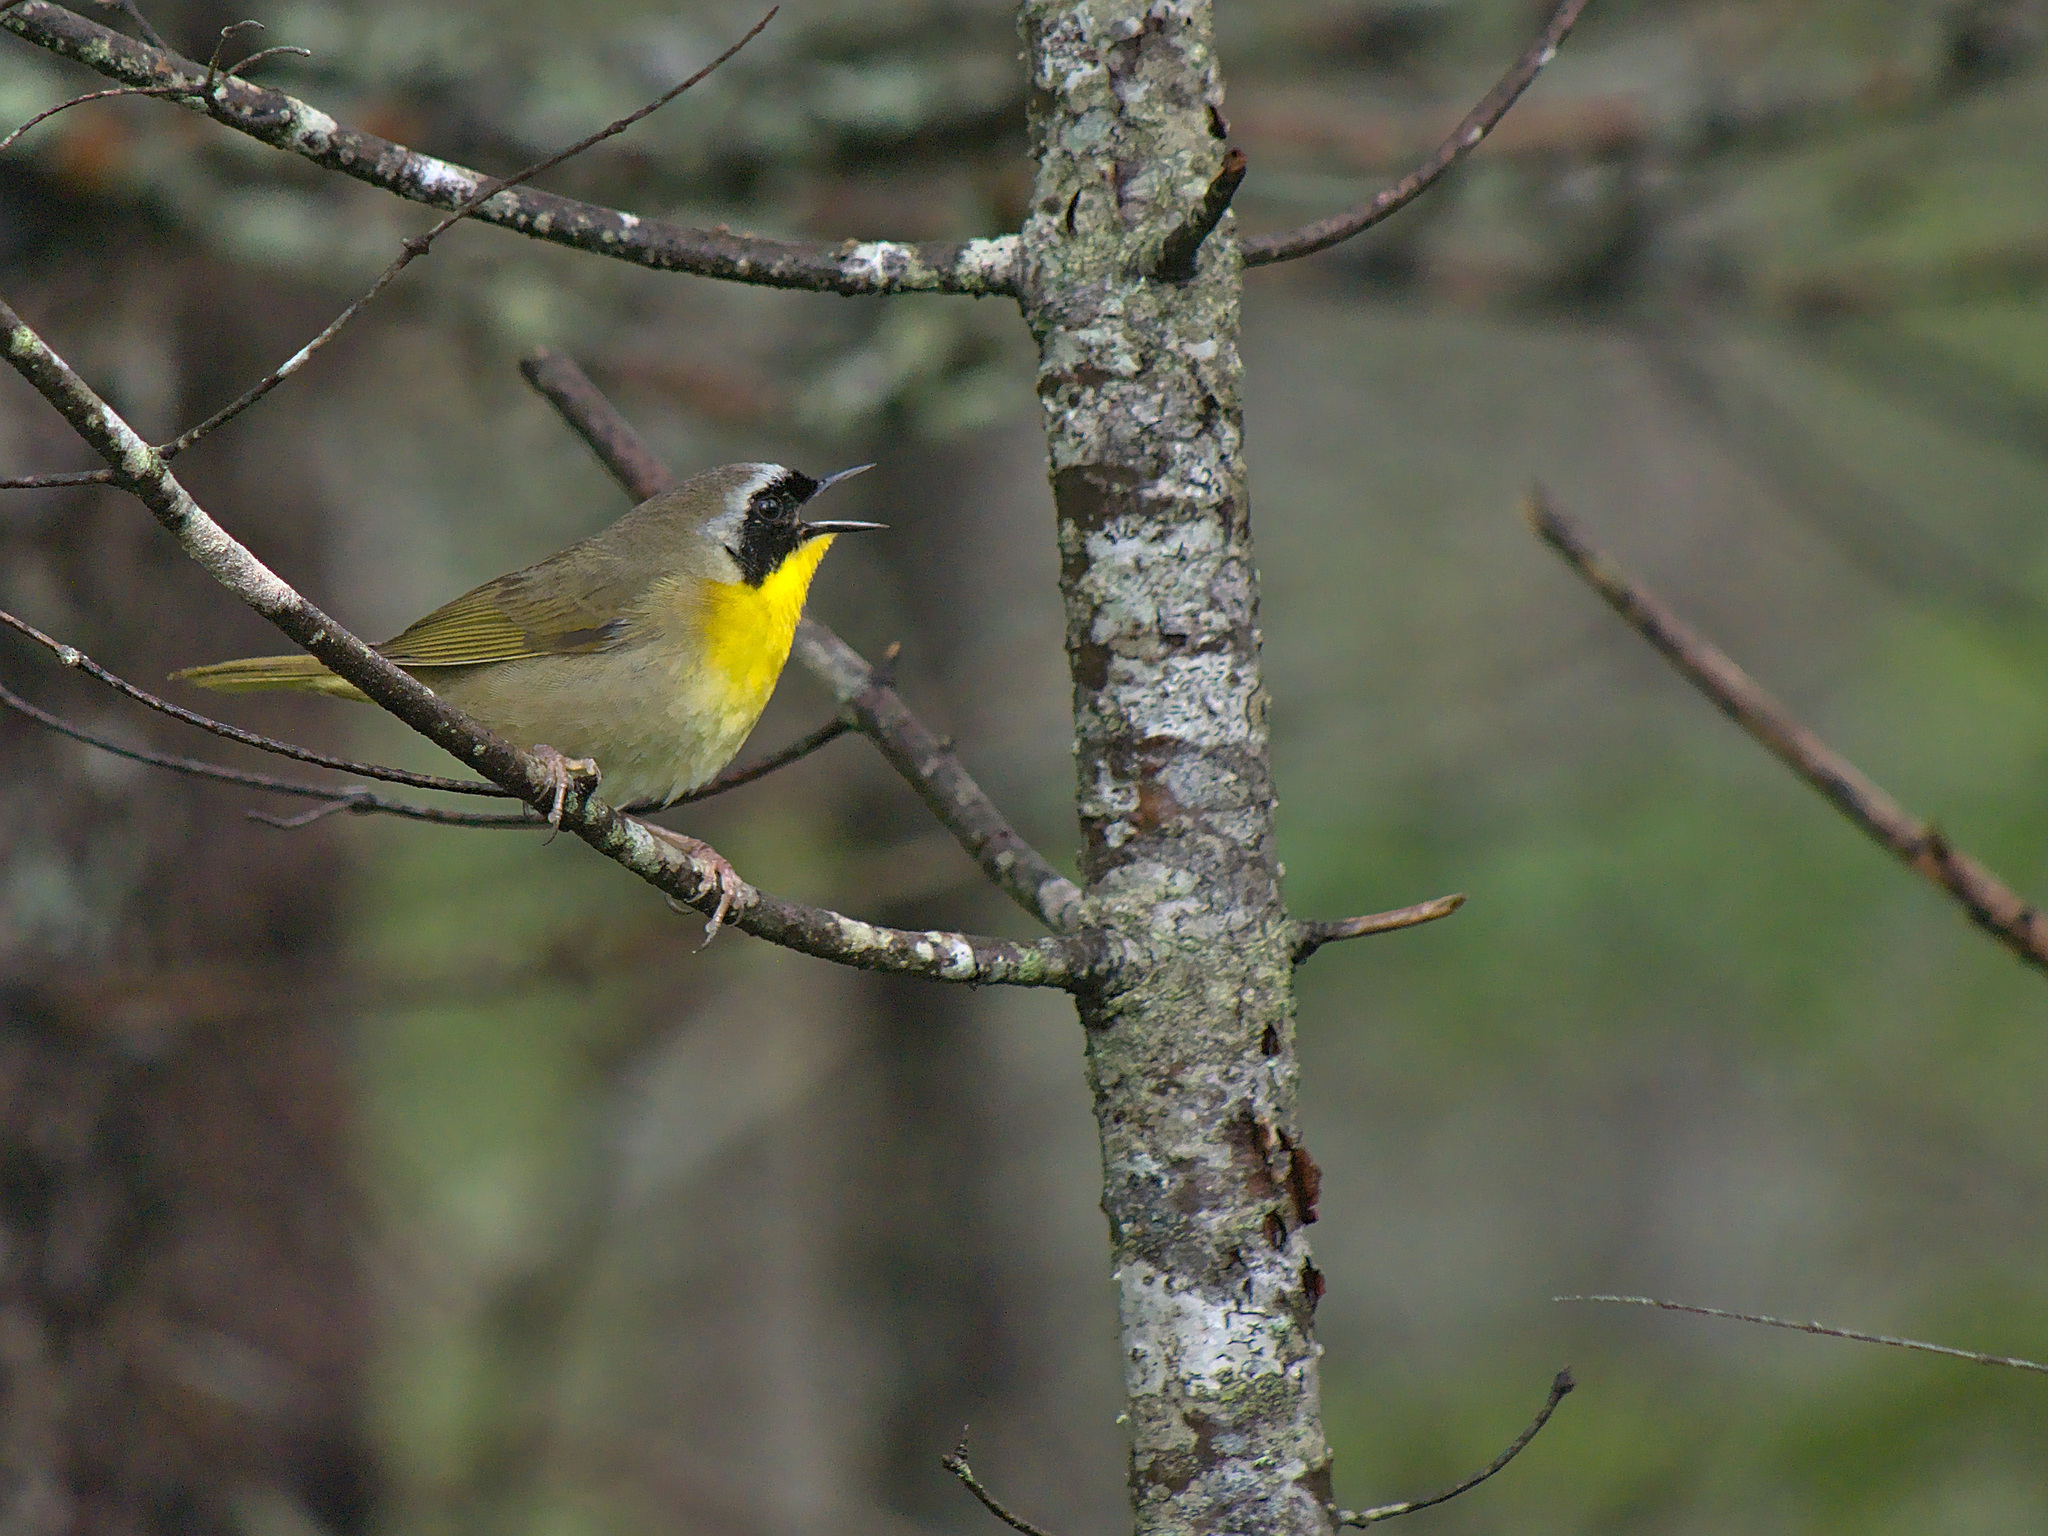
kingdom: Animalia
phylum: Chordata
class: Aves
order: Passeriformes
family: Parulidae
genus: Geothlypis
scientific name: Geothlypis trichas
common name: Common yellowthroat
